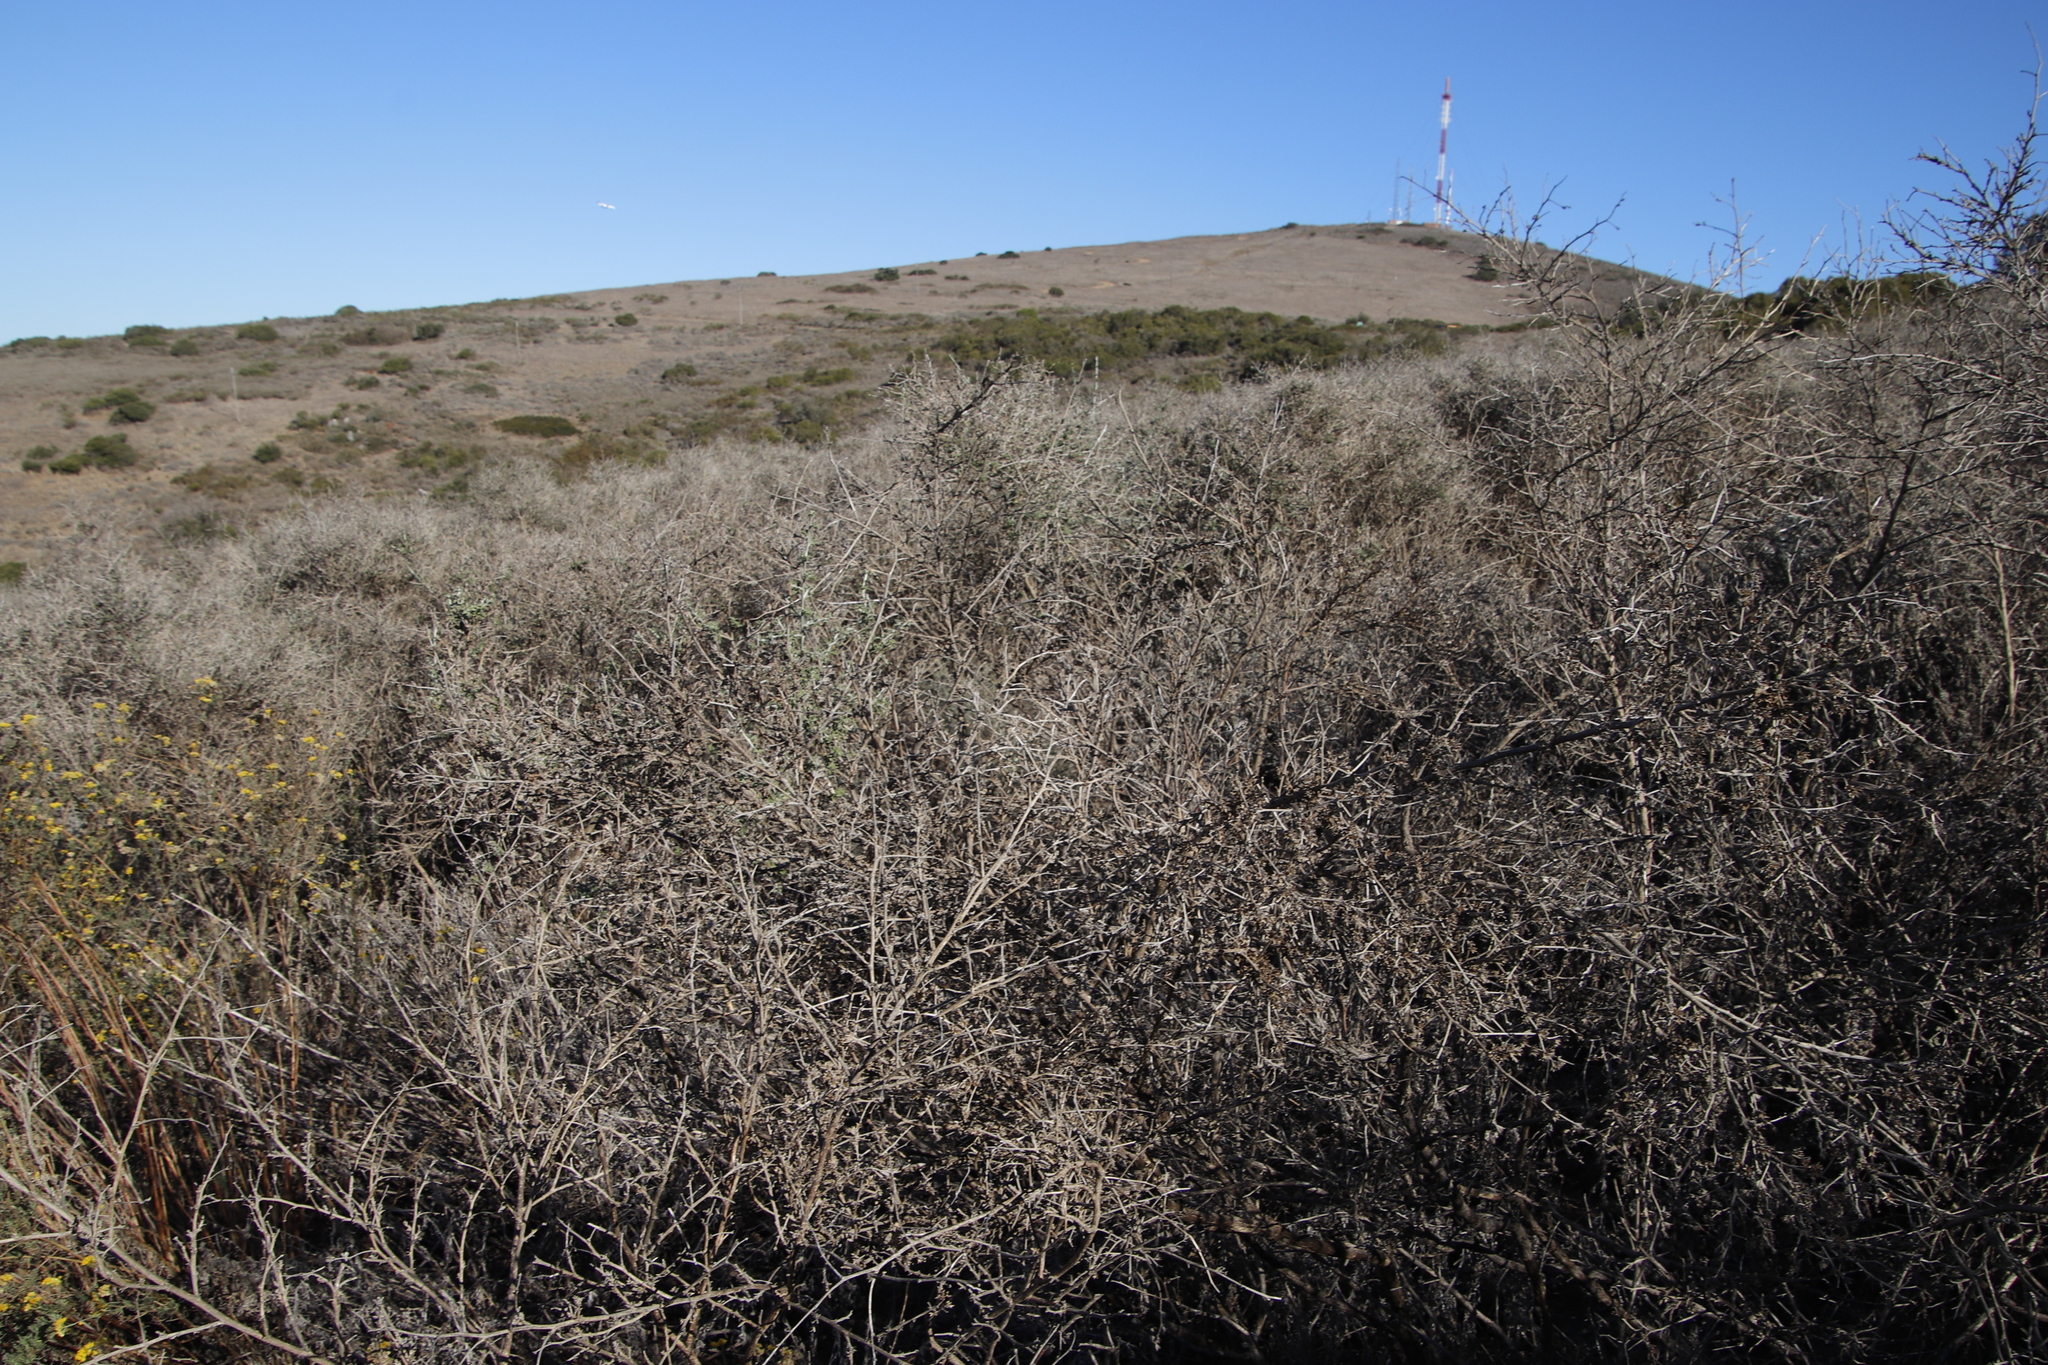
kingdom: Plantae
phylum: Tracheophyta
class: Magnoliopsida
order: Fabales
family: Fabaceae
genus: Psoralea
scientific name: Psoralea hirta
